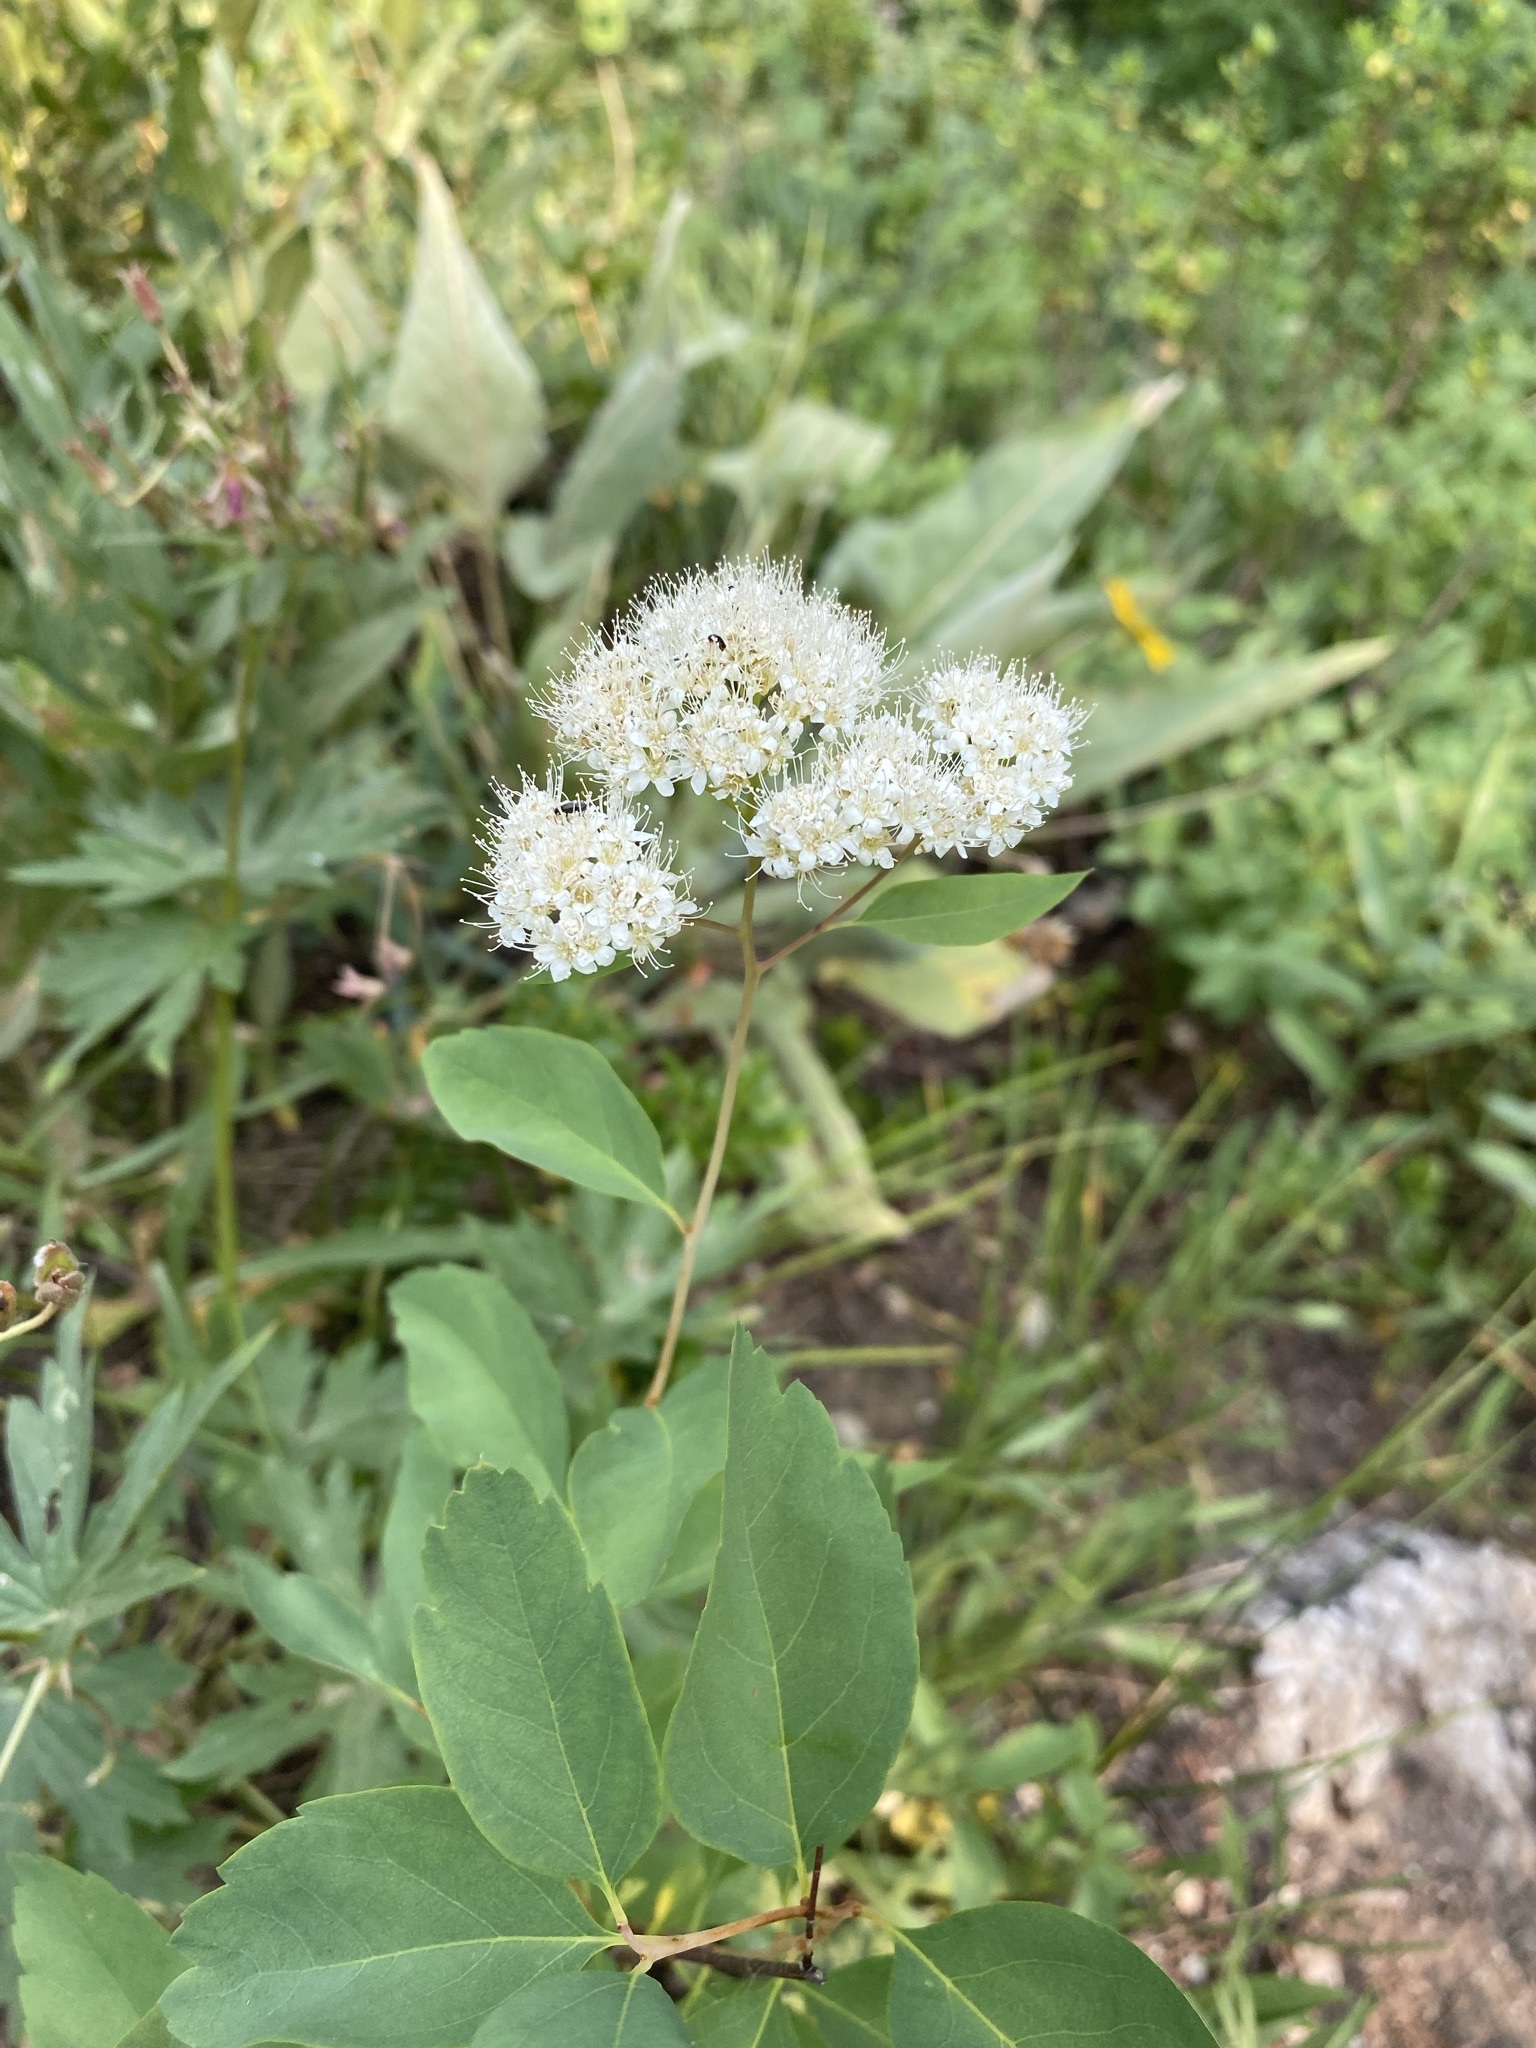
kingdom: Plantae
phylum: Tracheophyta
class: Magnoliopsida
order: Rosales
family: Rosaceae
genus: Spiraea
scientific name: Spiraea lucida
